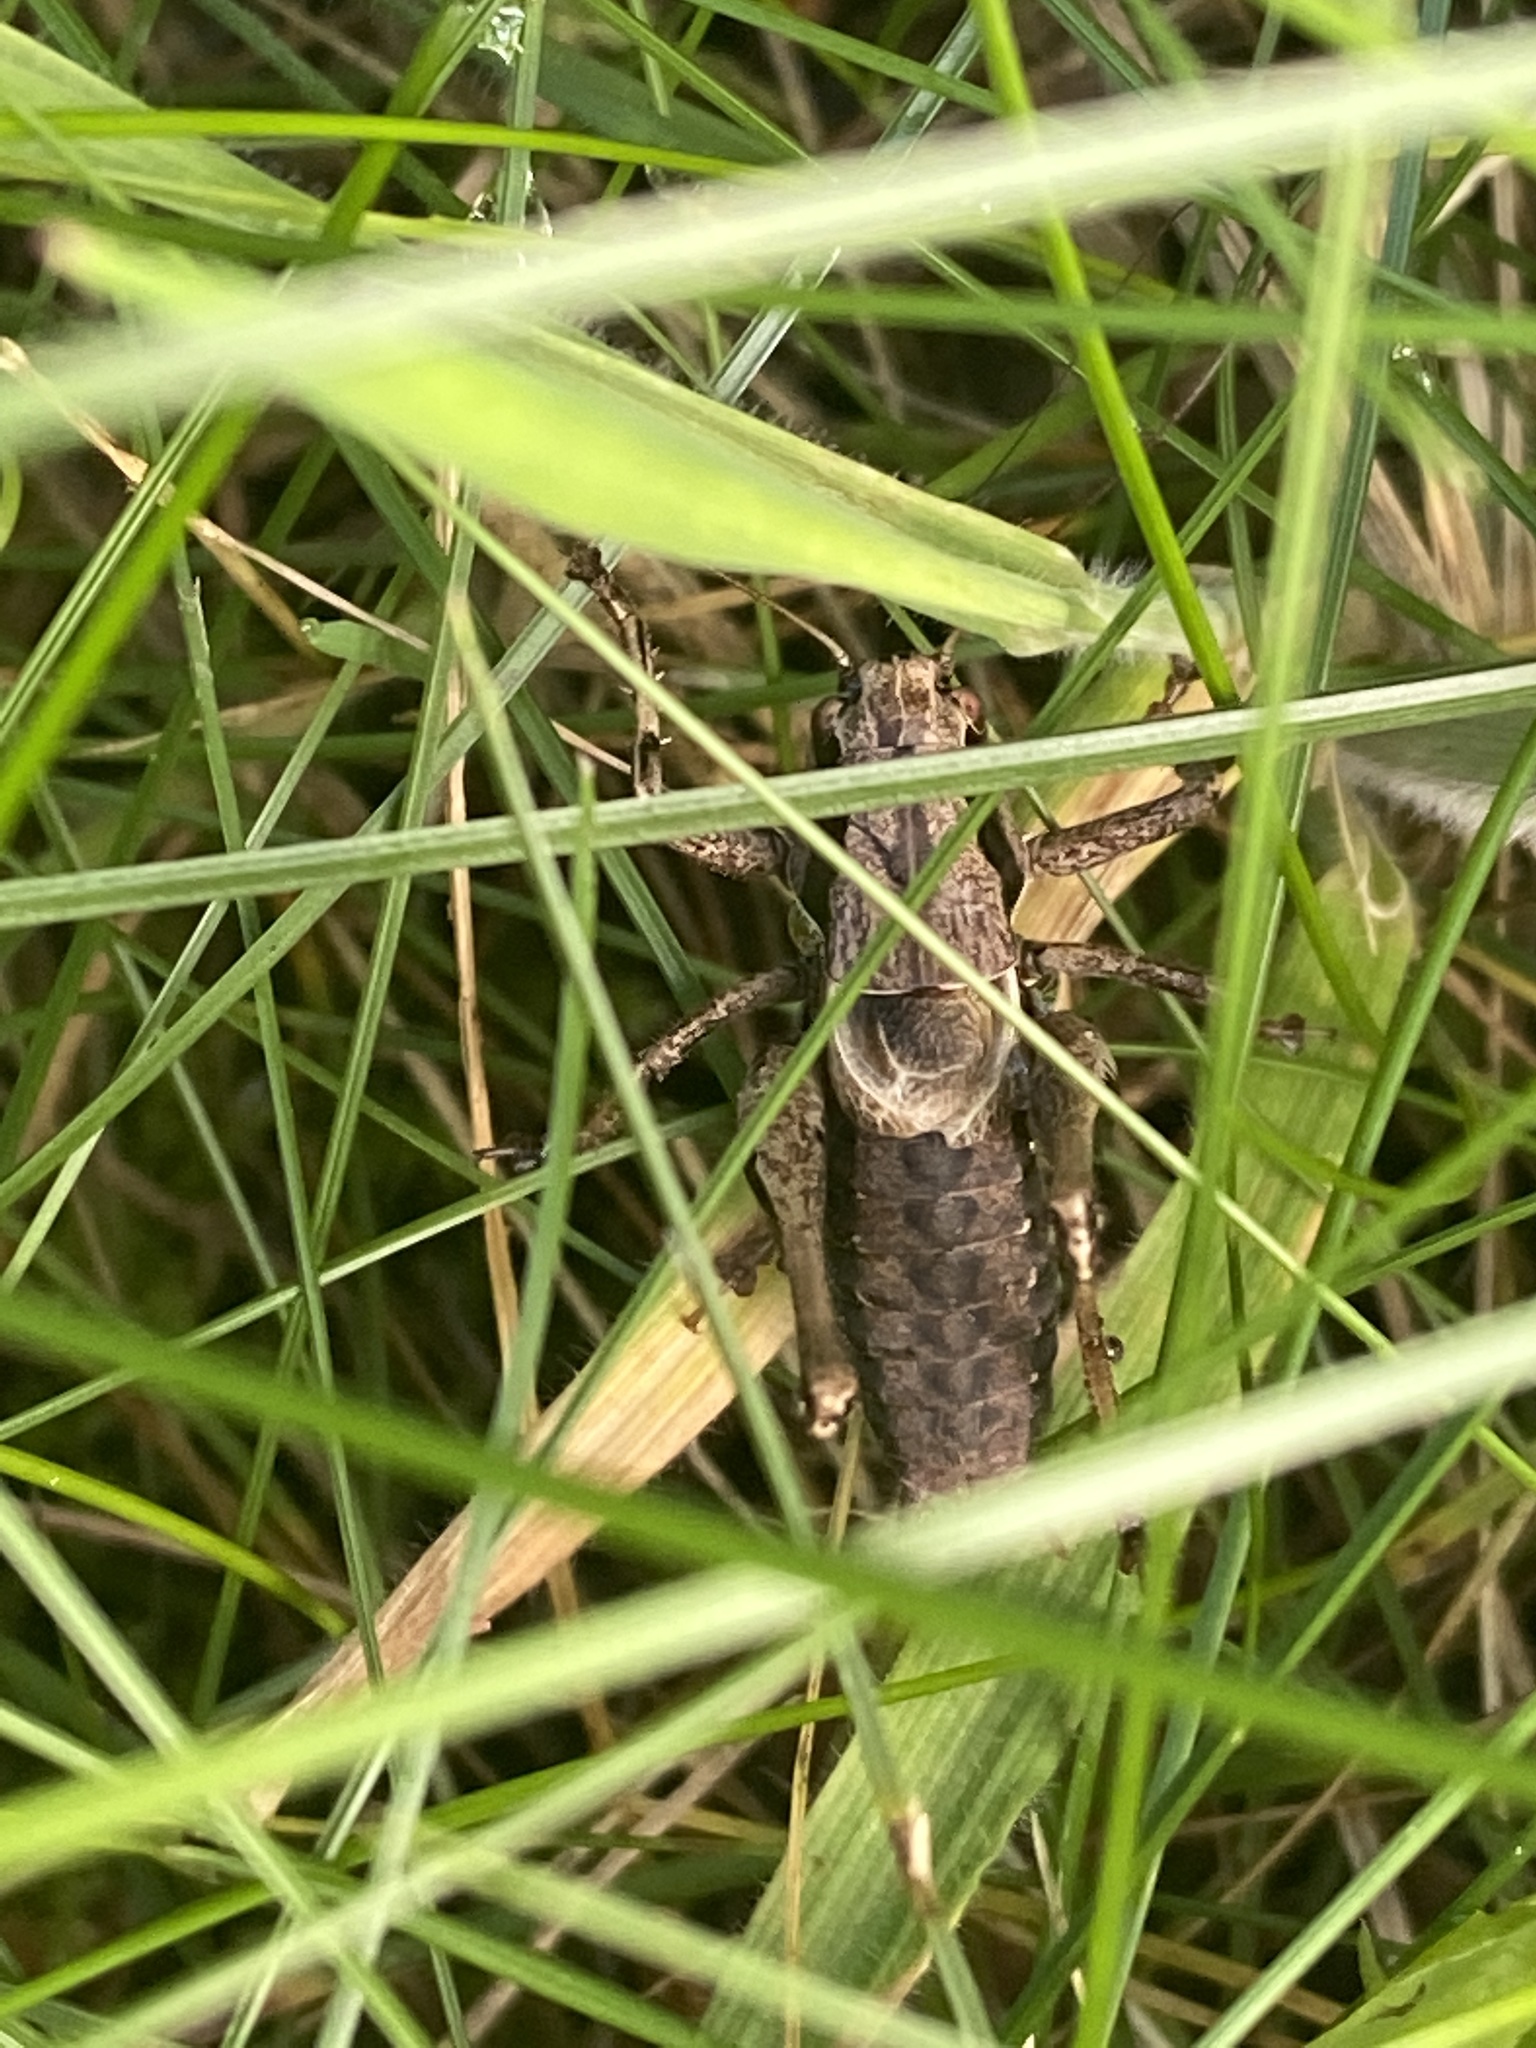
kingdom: Animalia
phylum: Arthropoda
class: Insecta
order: Orthoptera
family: Tettigoniidae
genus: Pholidoptera
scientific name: Pholidoptera griseoaptera
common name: Dark bush-cricket
